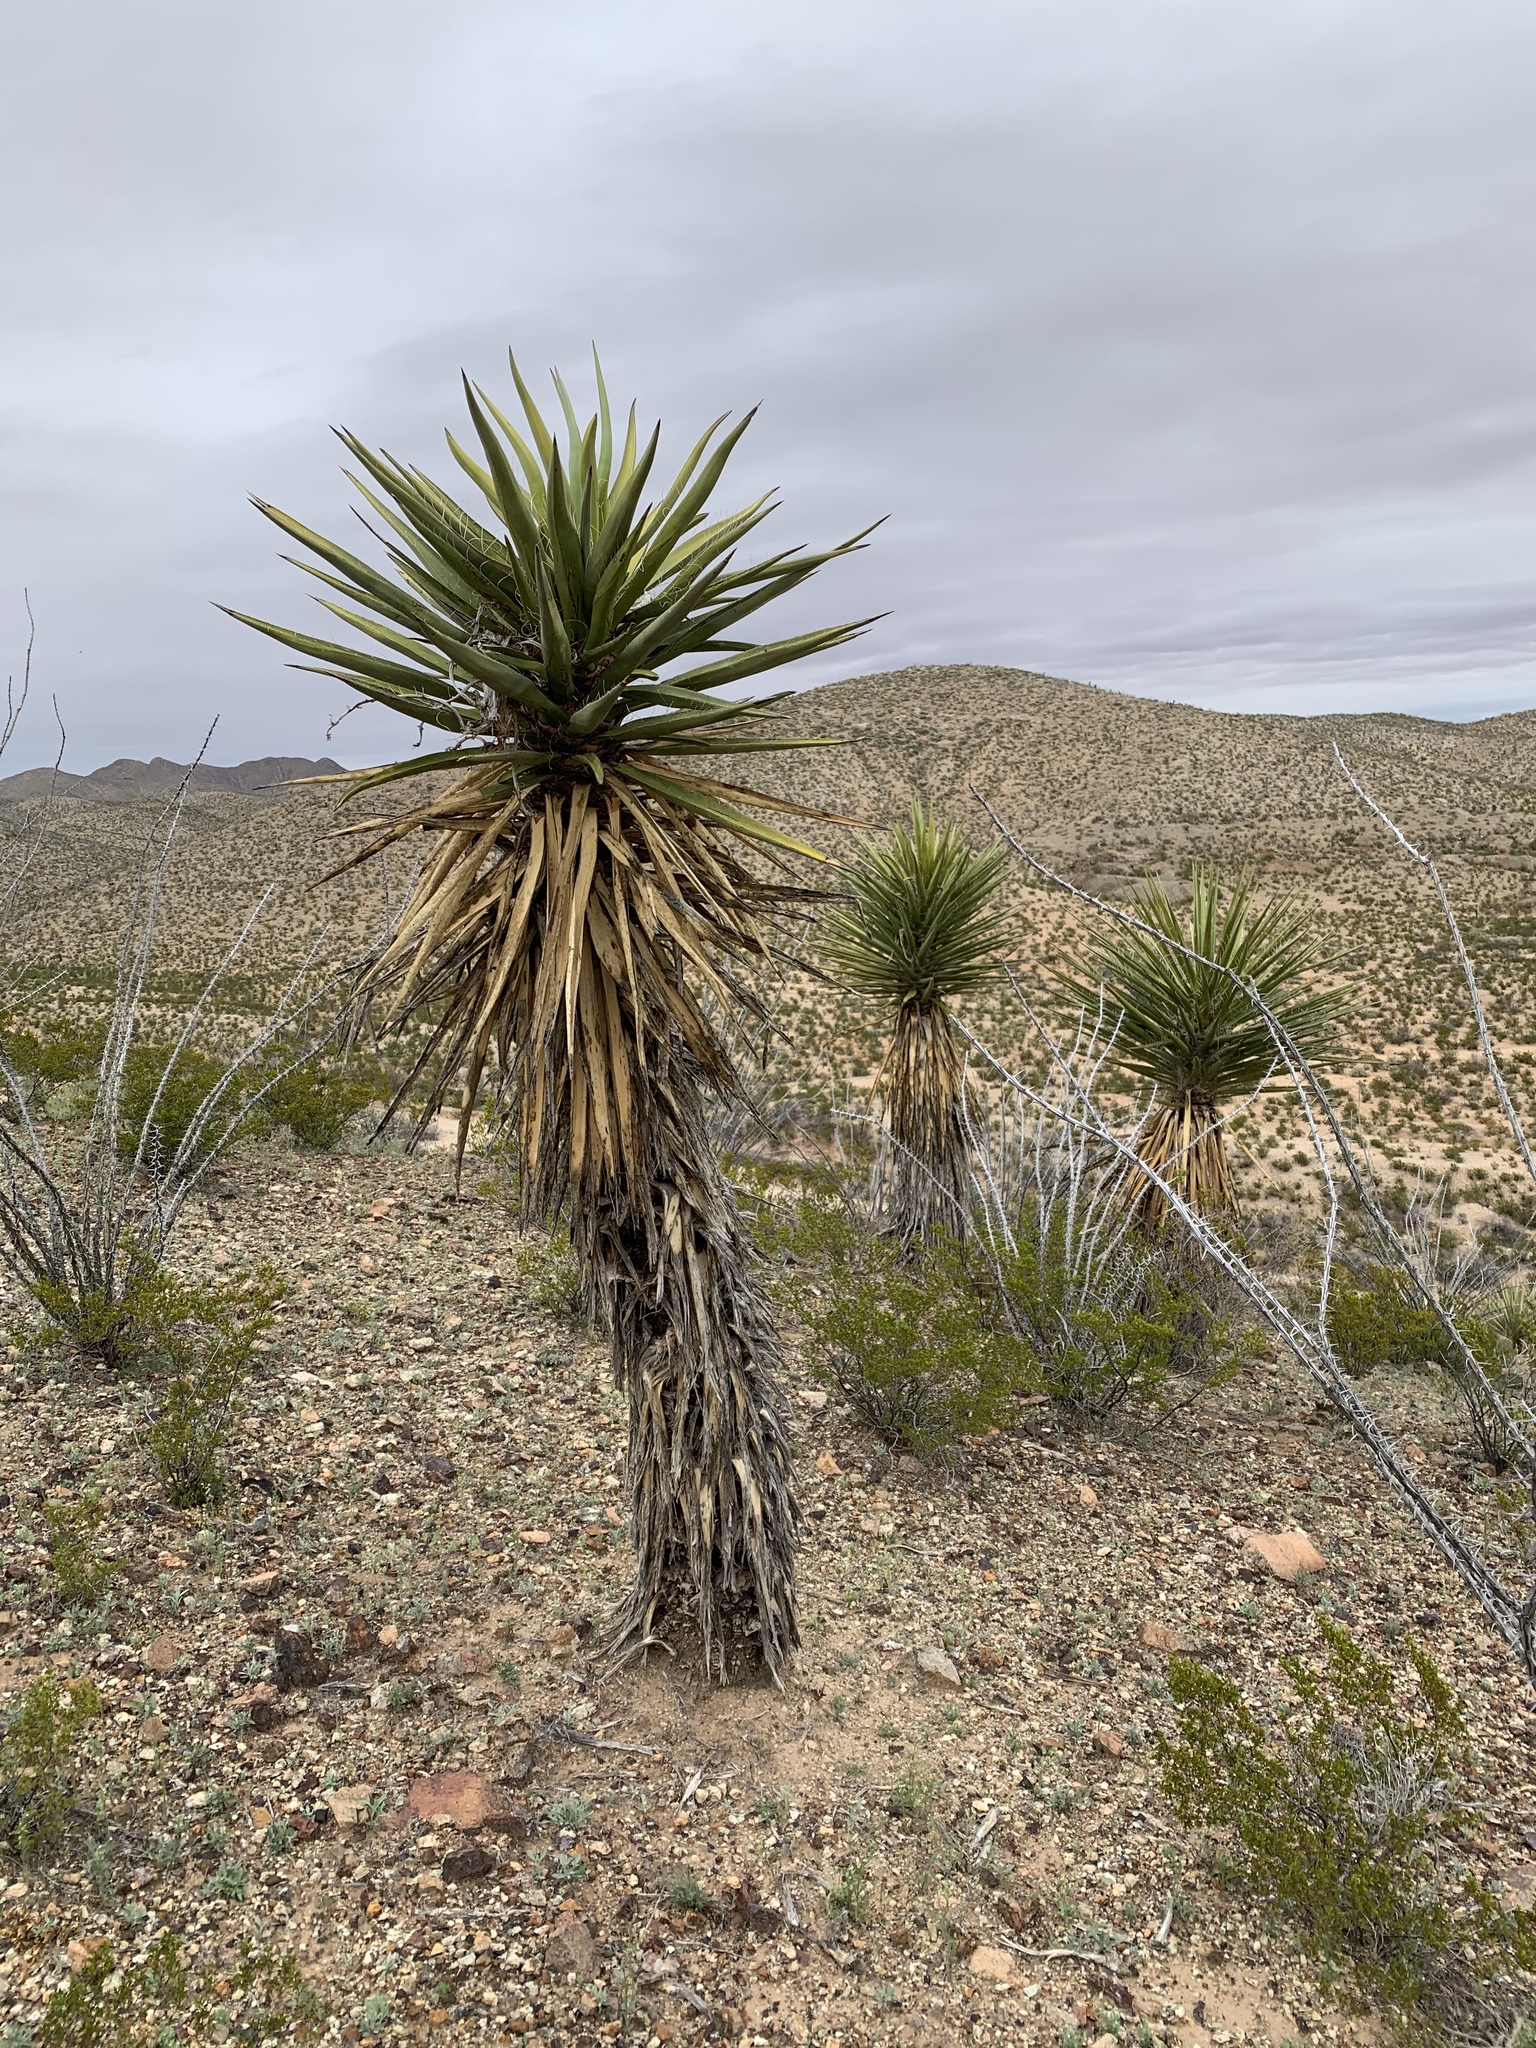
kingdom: Plantae
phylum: Tracheophyta
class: Liliopsida
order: Asparagales
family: Asparagaceae
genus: Yucca
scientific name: Yucca treculiana
